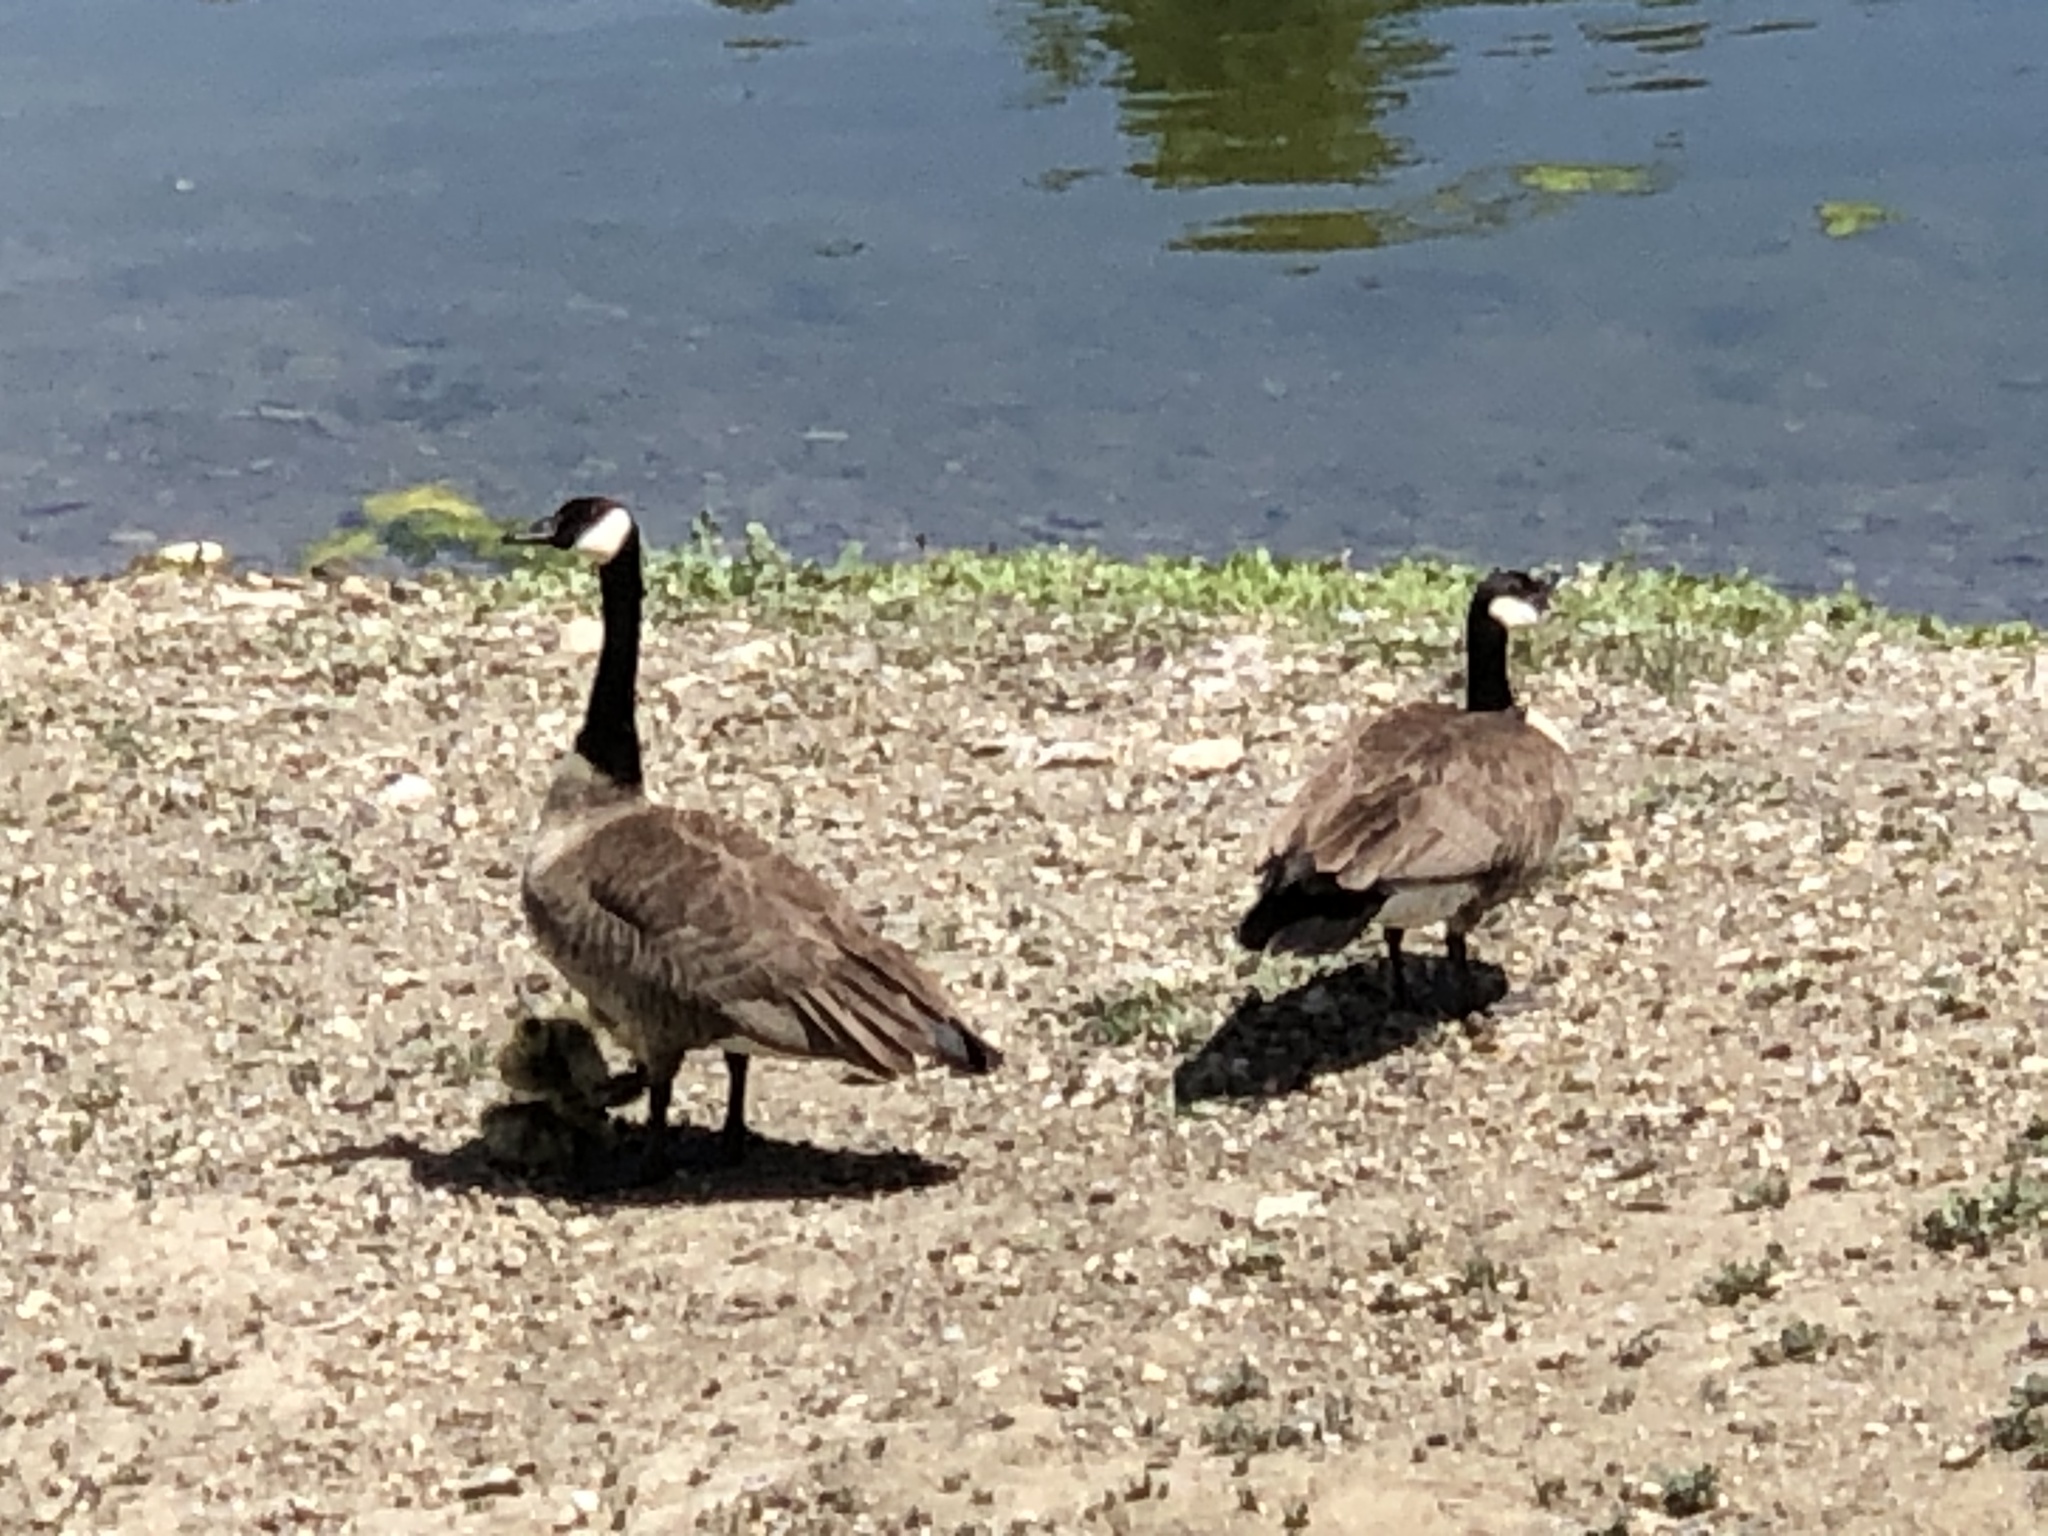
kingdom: Animalia
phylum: Chordata
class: Aves
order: Anseriformes
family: Anatidae
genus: Branta
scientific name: Branta canadensis
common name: Canada goose
